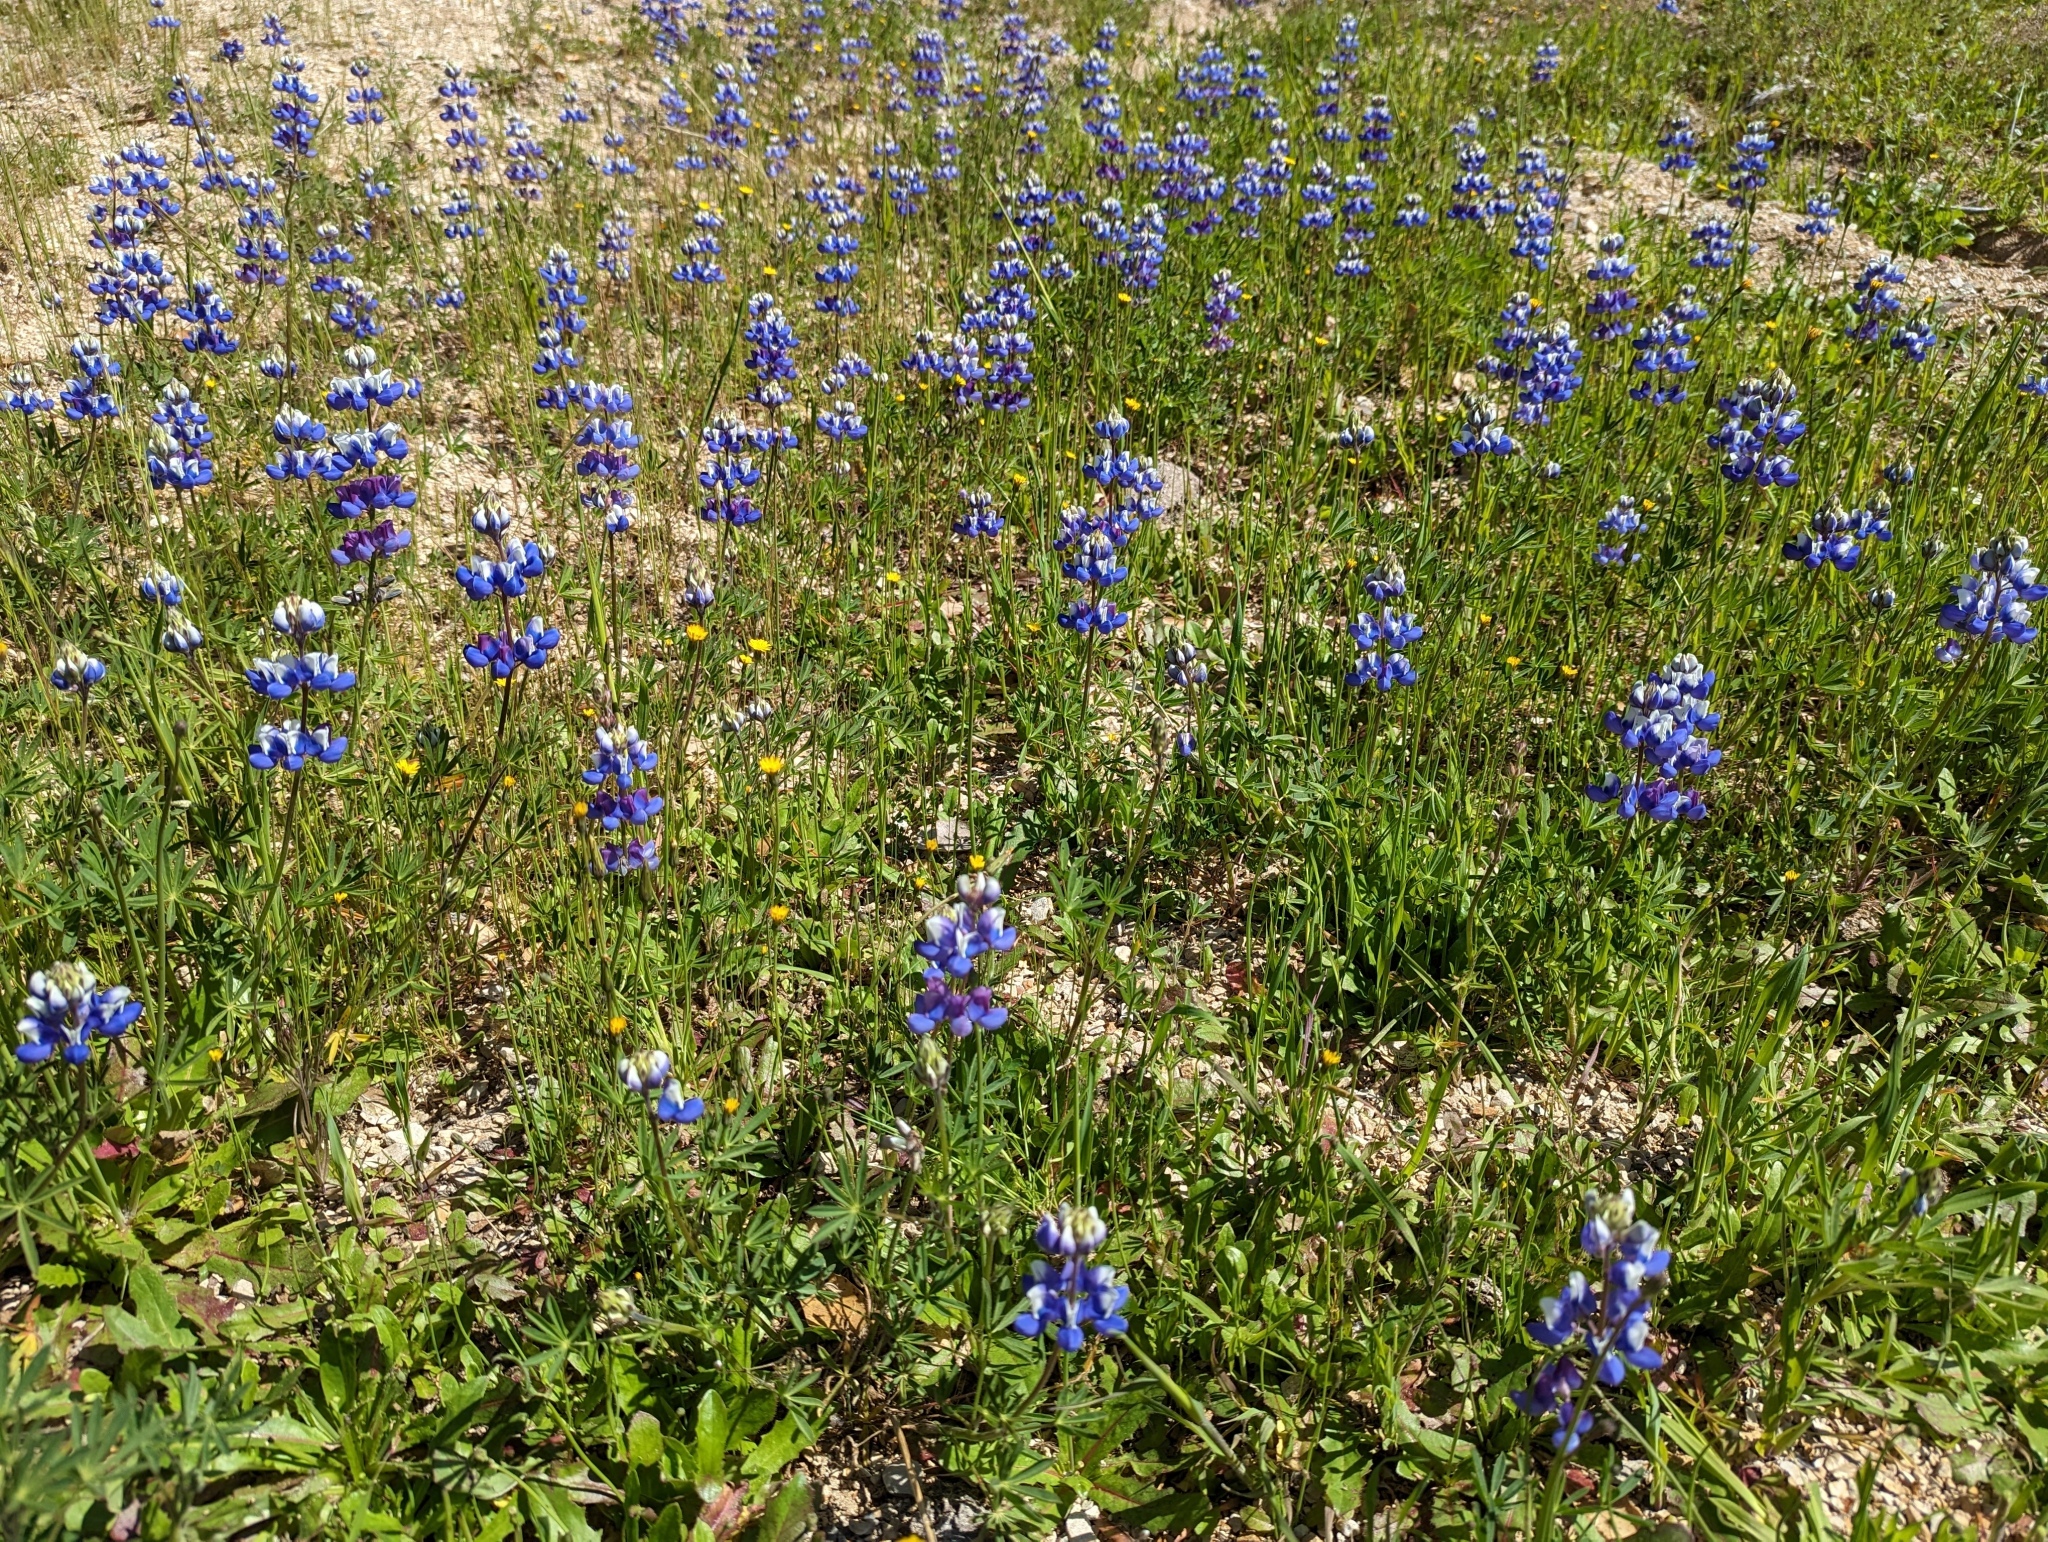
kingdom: Plantae
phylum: Tracheophyta
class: Magnoliopsida
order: Fabales
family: Fabaceae
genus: Lupinus
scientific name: Lupinus nanus
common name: Orean blue lupin
